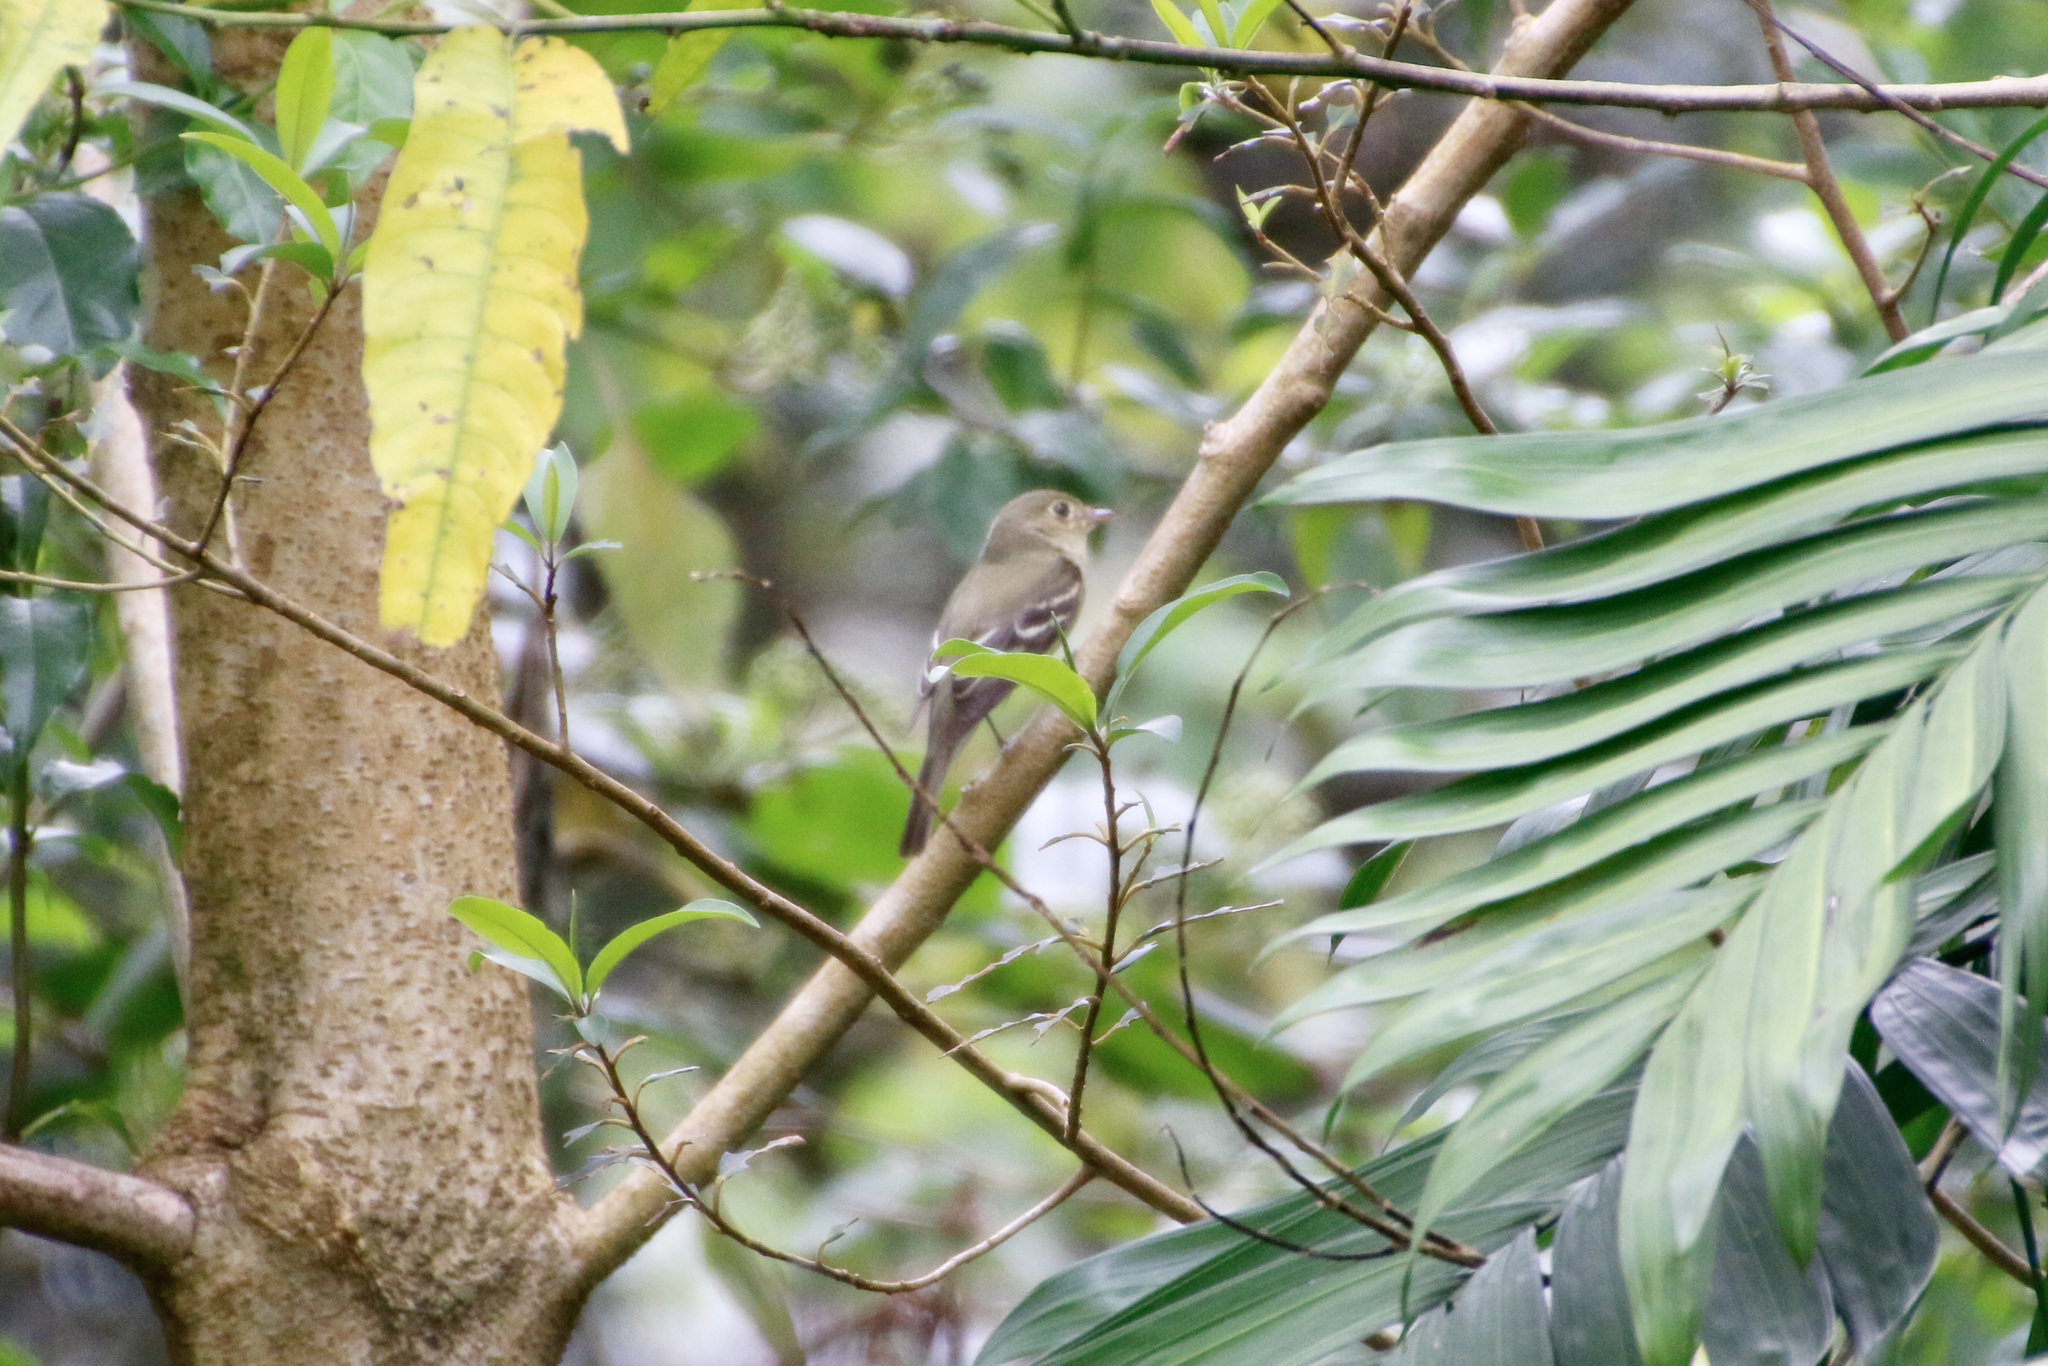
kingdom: Animalia
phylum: Chordata
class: Aves
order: Passeriformes
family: Tyrannidae
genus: Elaenia
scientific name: Elaenia frantzii
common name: Mountain elaenia
